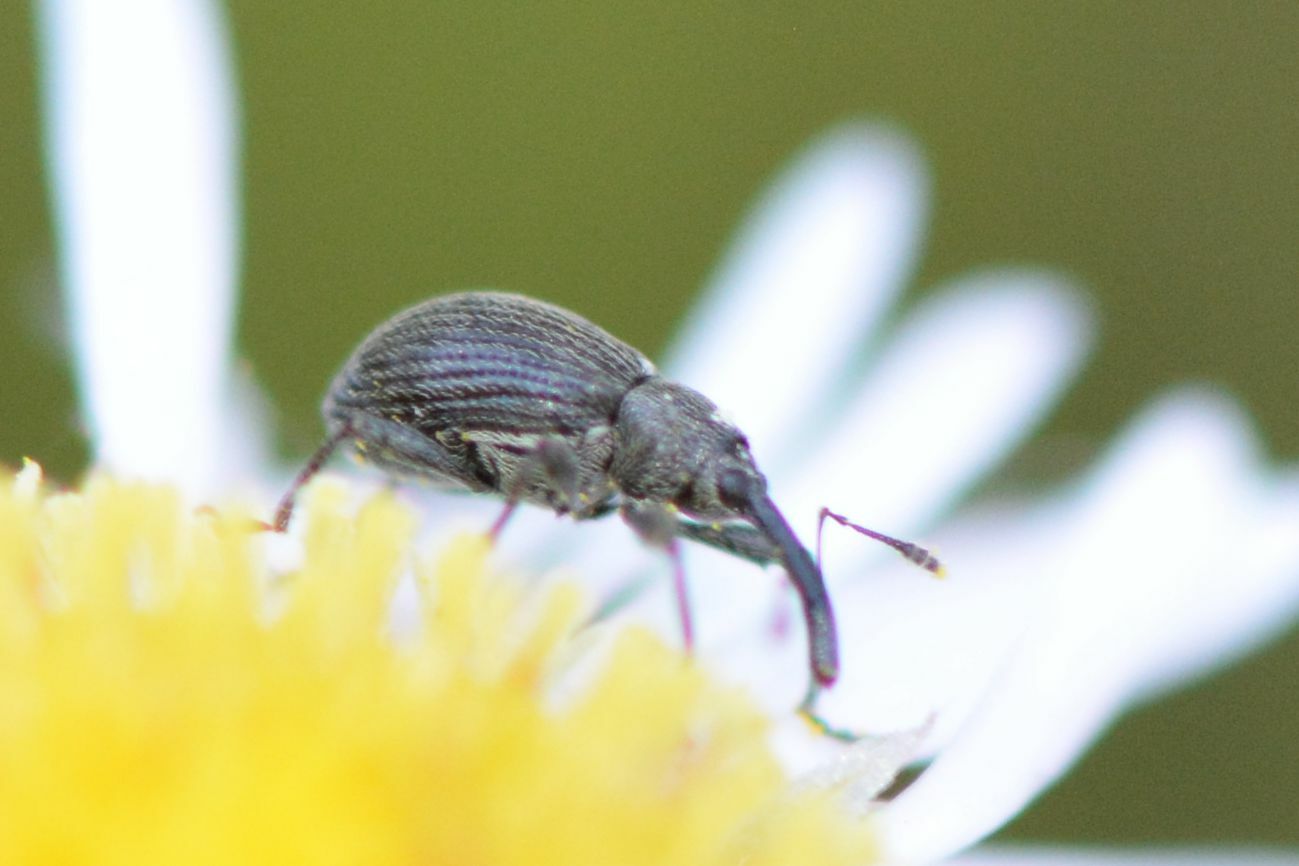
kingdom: Animalia
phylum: Arthropoda
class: Insecta
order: Coleoptera
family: Curculionidae
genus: Anthonomus
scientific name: Anthonomus rubi
